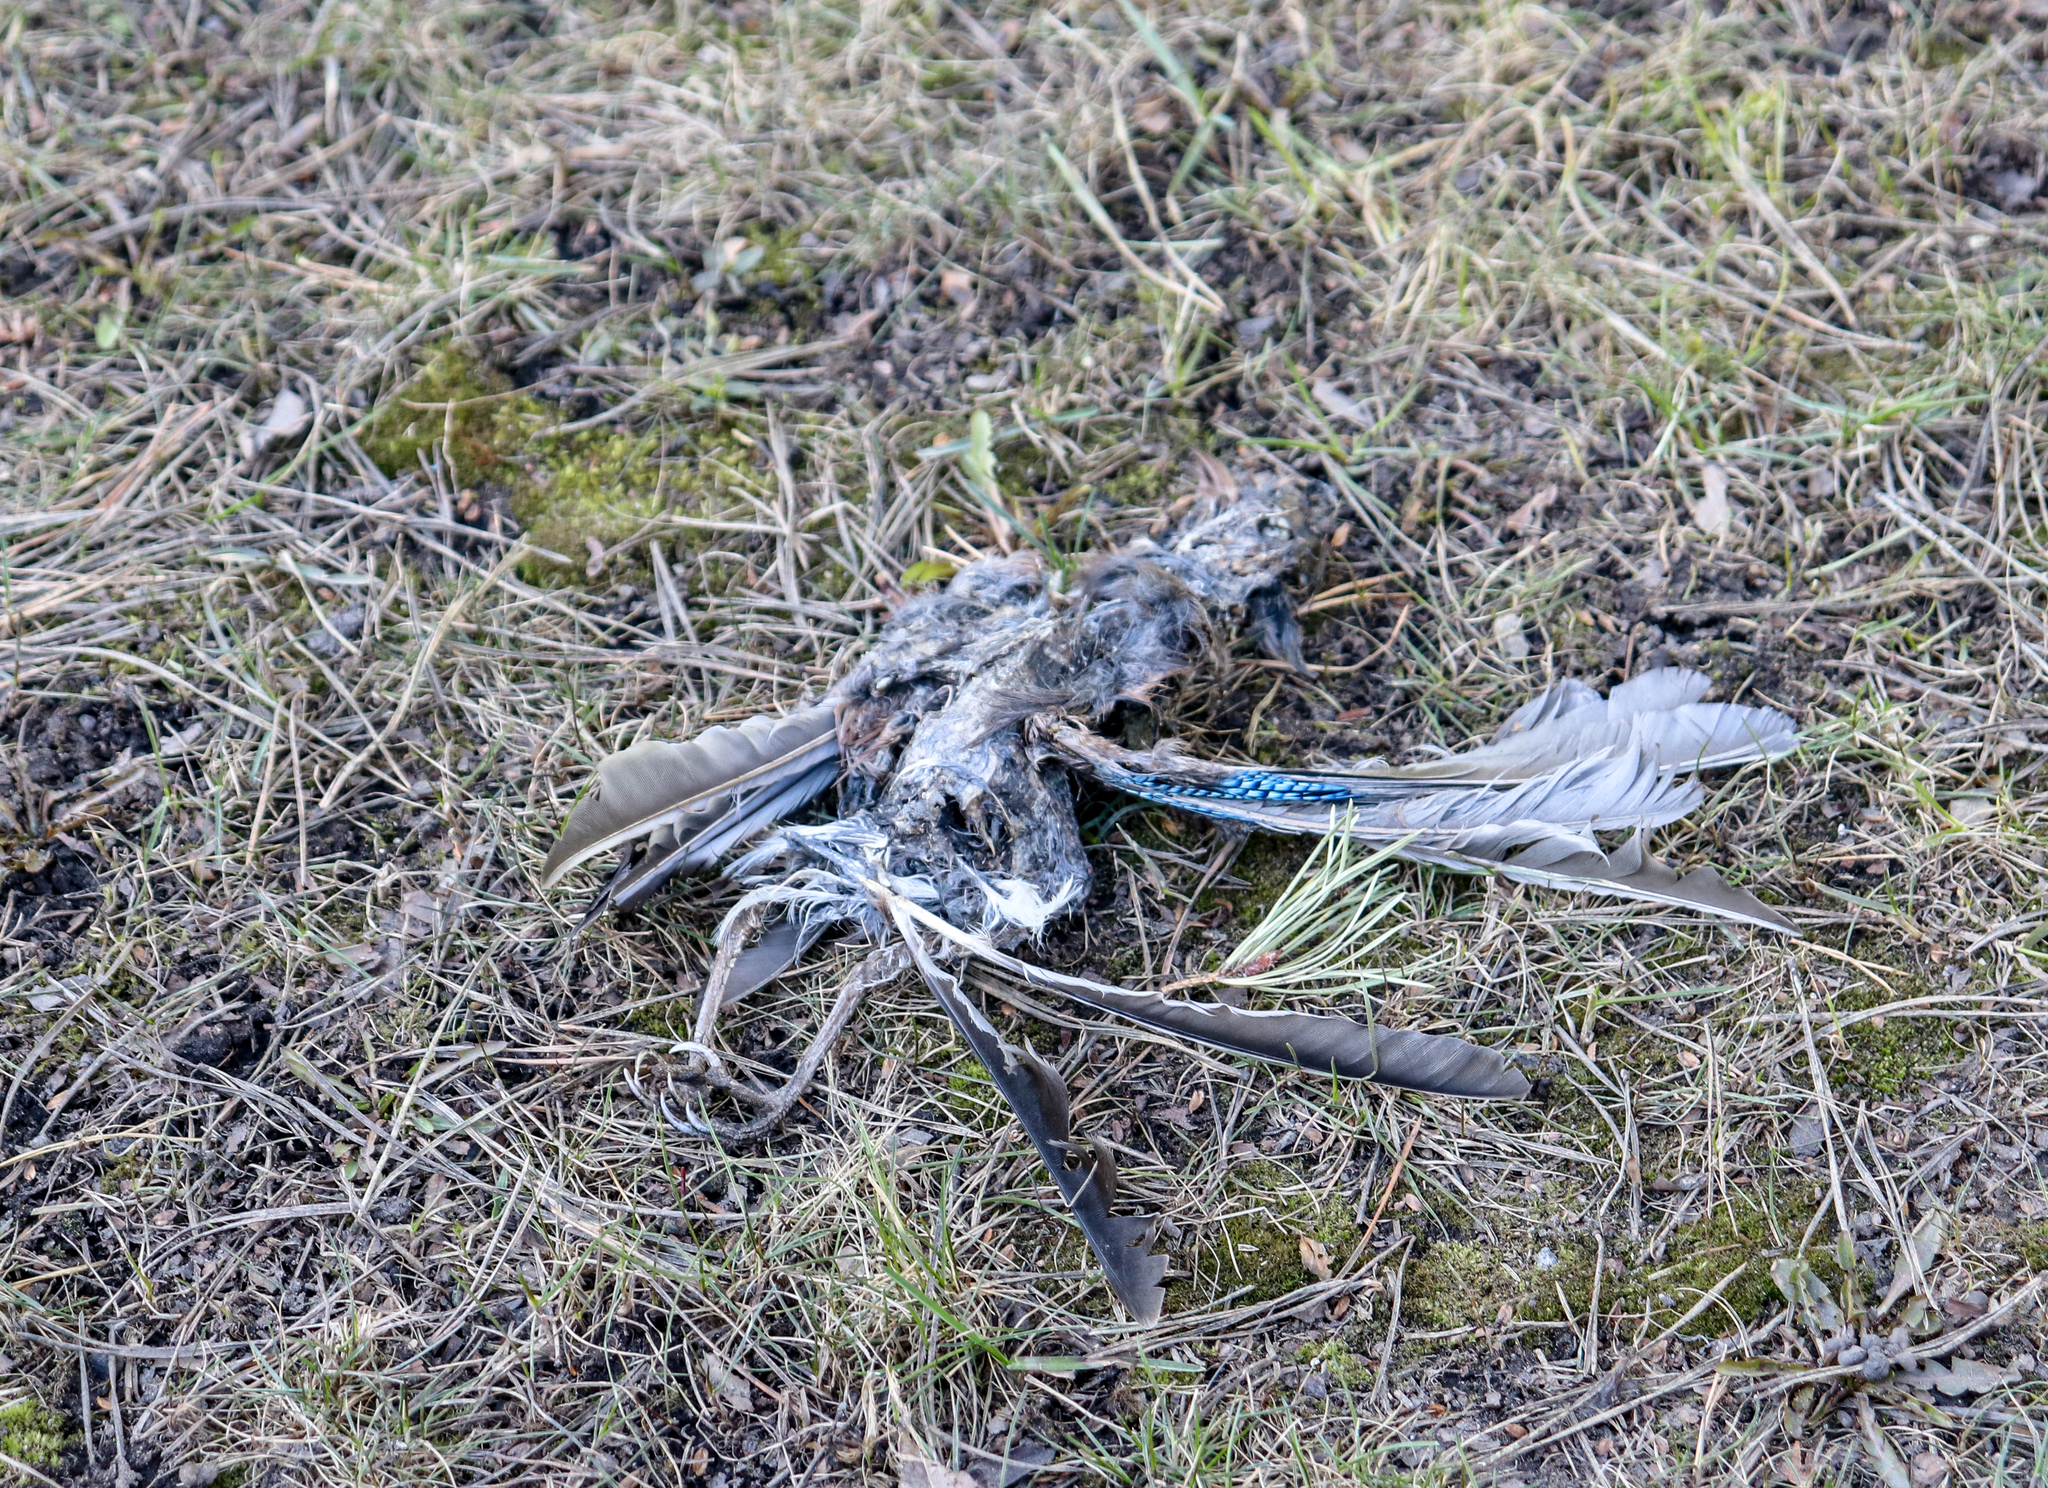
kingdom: Animalia
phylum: Chordata
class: Aves
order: Passeriformes
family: Corvidae
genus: Garrulus
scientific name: Garrulus glandarius
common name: Eurasian jay
